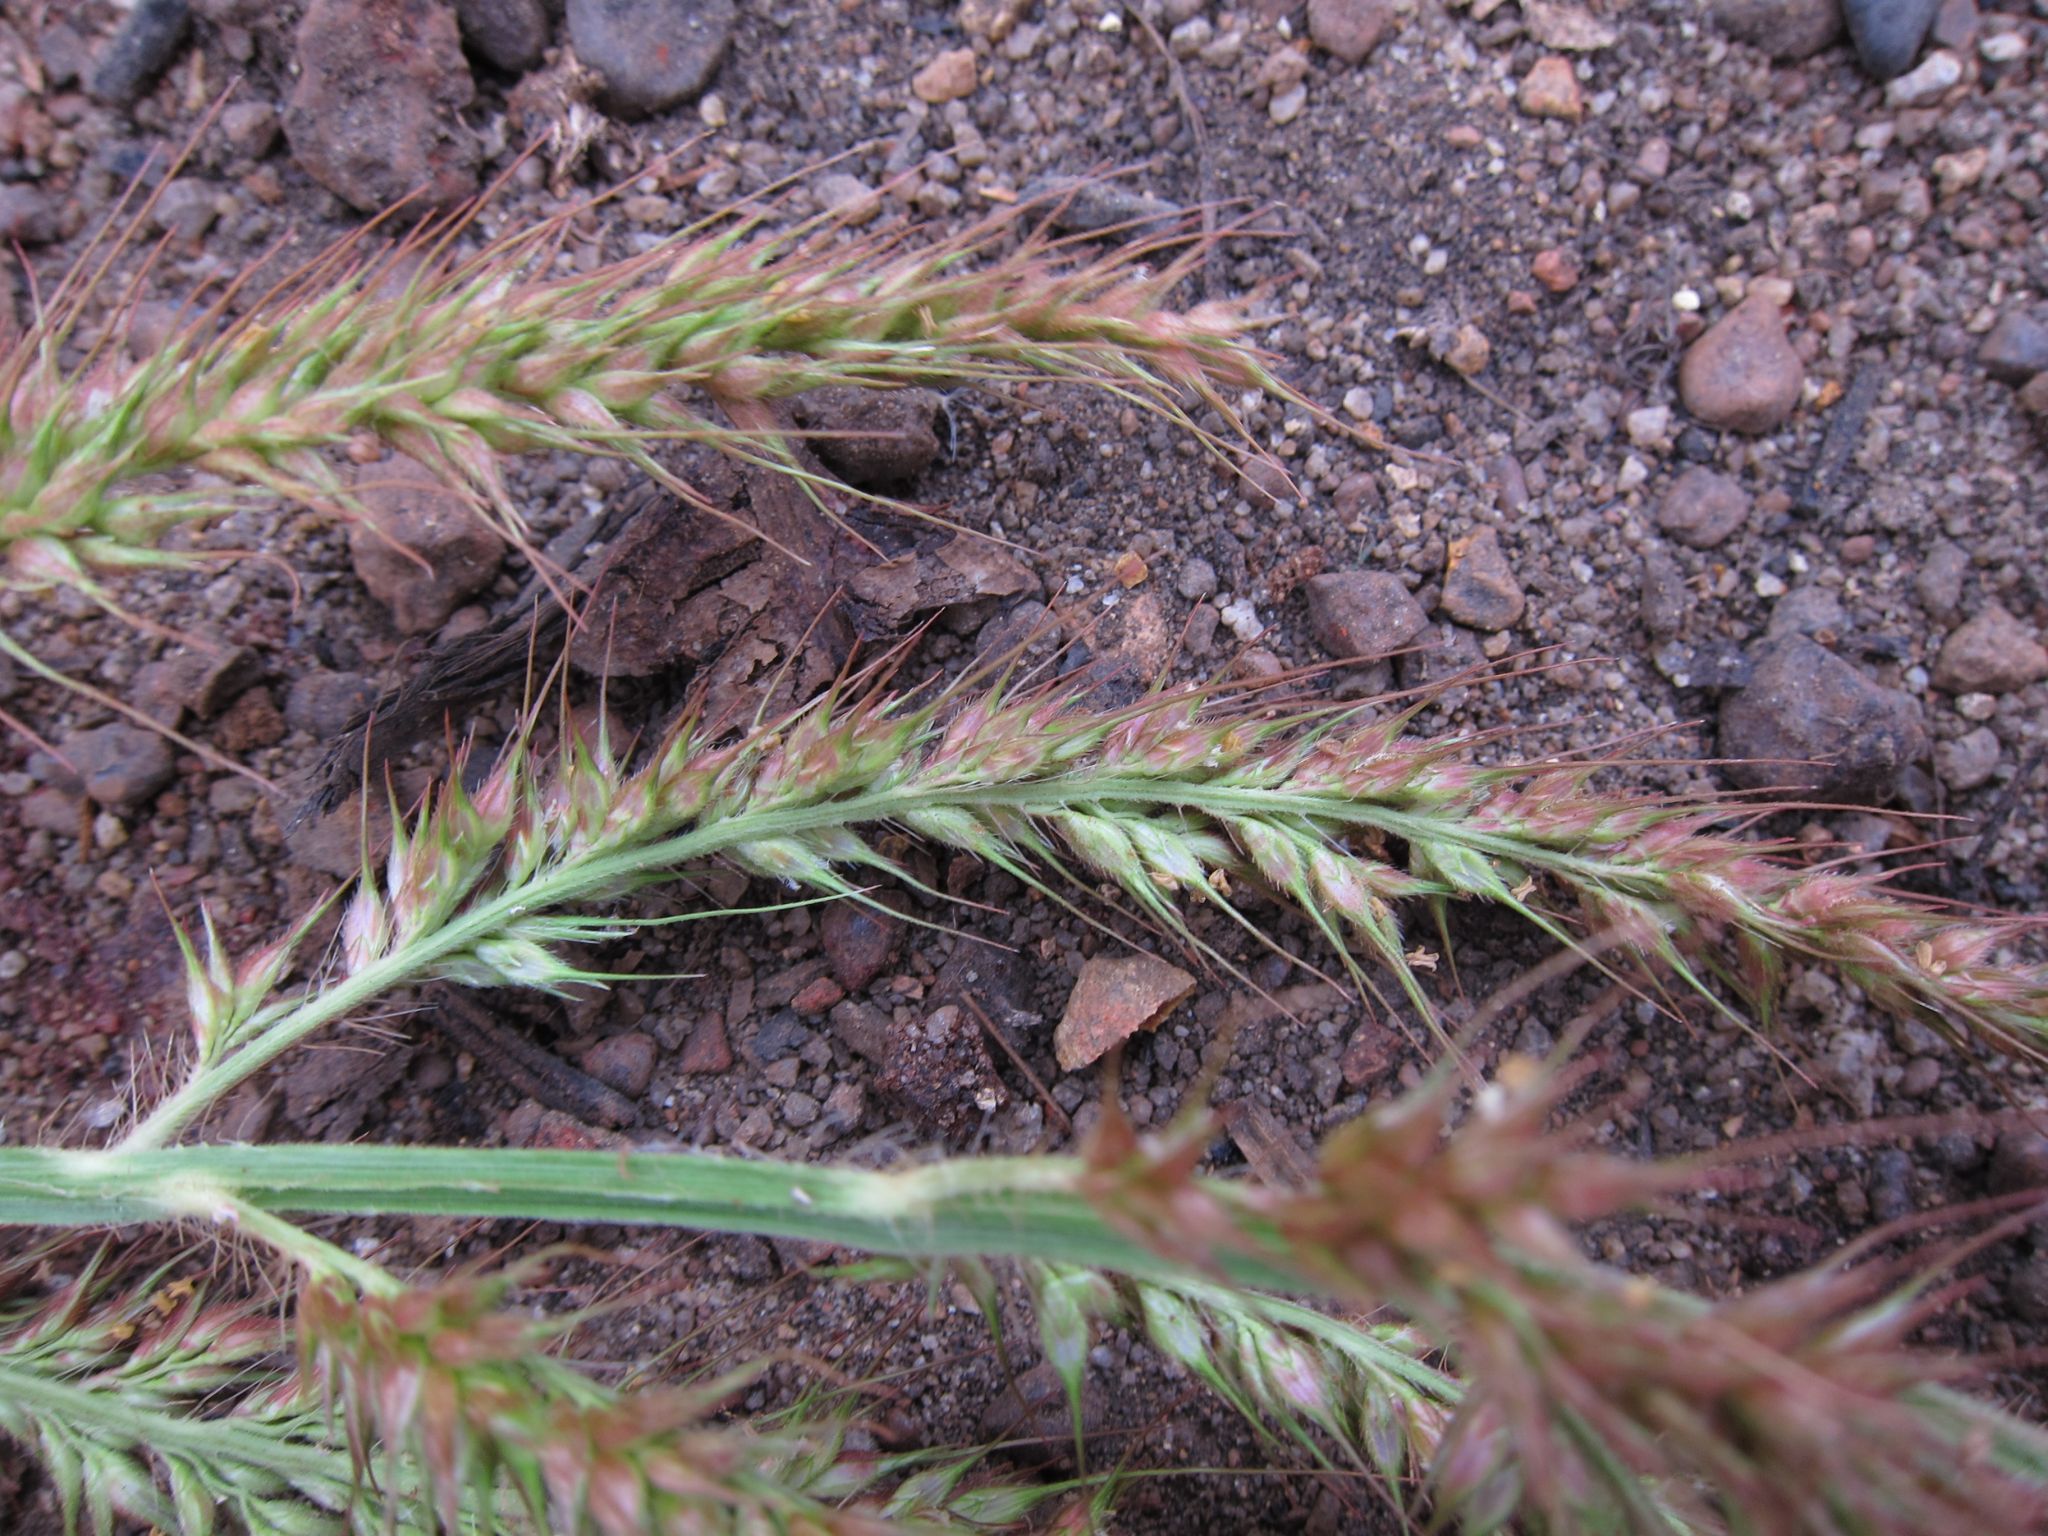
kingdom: Plantae
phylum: Tracheophyta
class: Liliopsida
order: Poales
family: Poaceae
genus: Echinochloa
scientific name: Echinochloa stagnina
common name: Burgu grass
